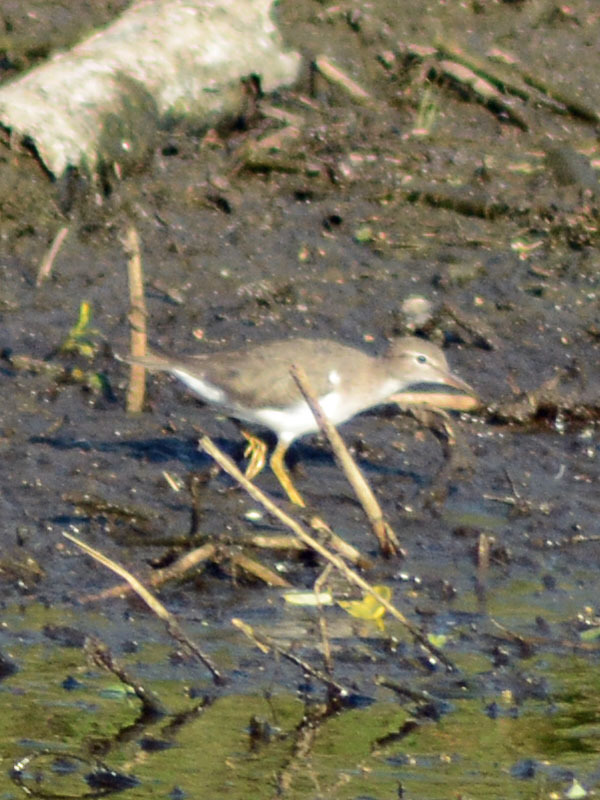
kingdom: Animalia
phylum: Chordata
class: Aves
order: Charadriiformes
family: Scolopacidae
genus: Actitis
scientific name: Actitis macularius
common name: Spotted sandpiper
